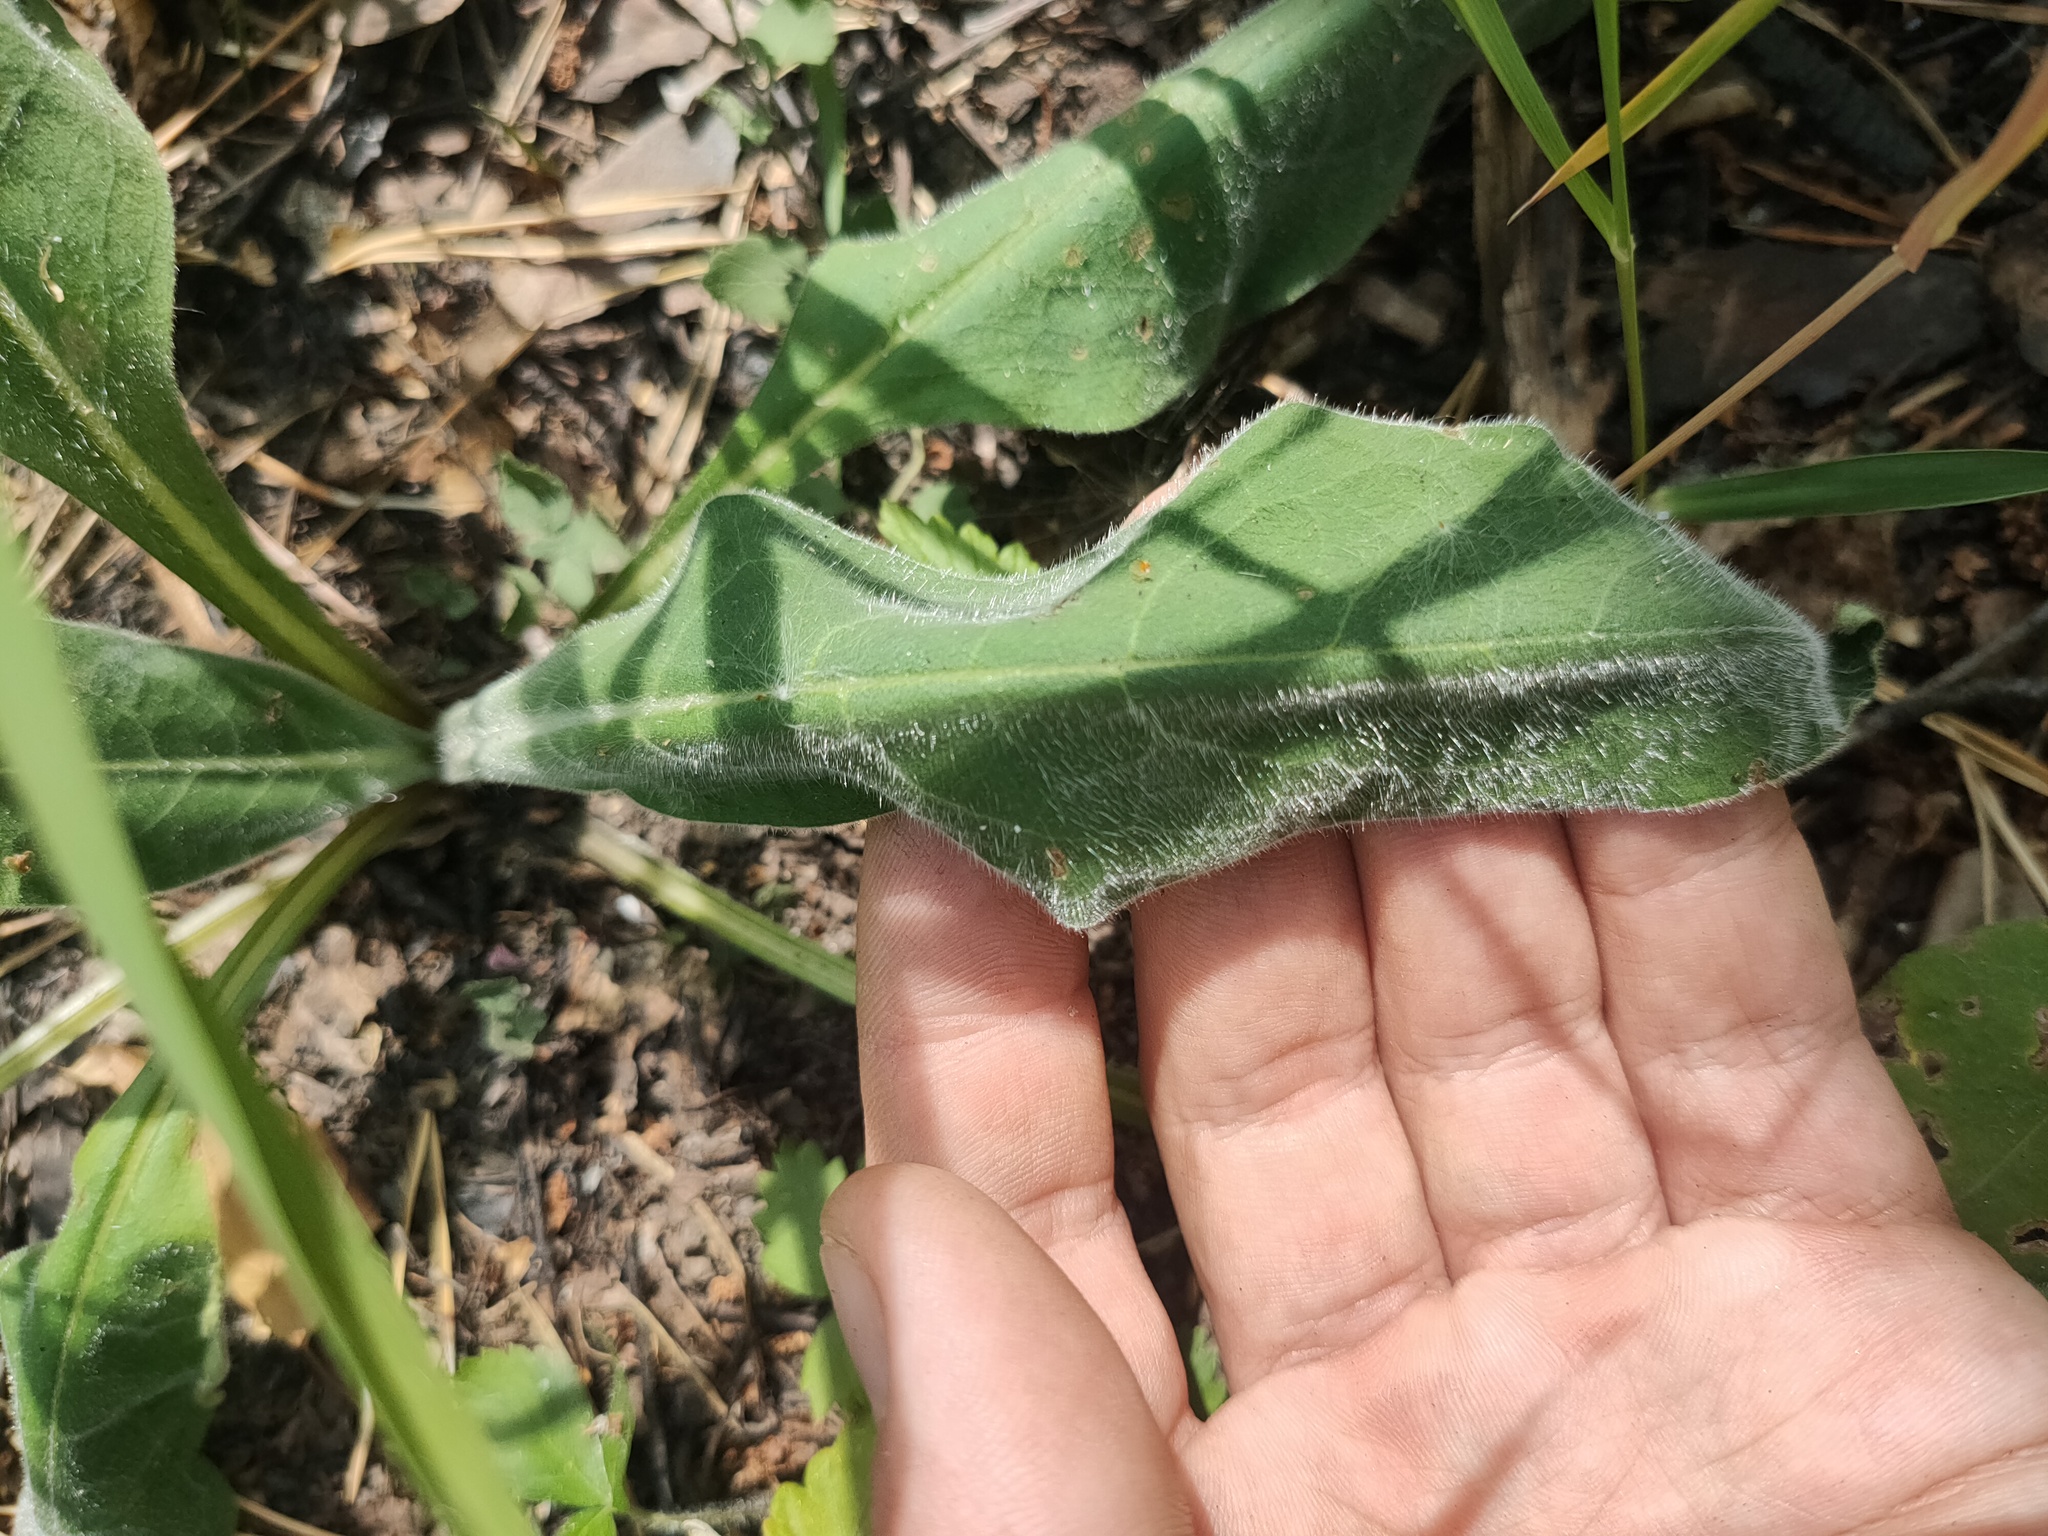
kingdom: Plantae
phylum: Tracheophyta
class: Magnoliopsida
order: Boraginales
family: Boraginaceae
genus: Pulmonaria
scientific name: Pulmonaria mollis
